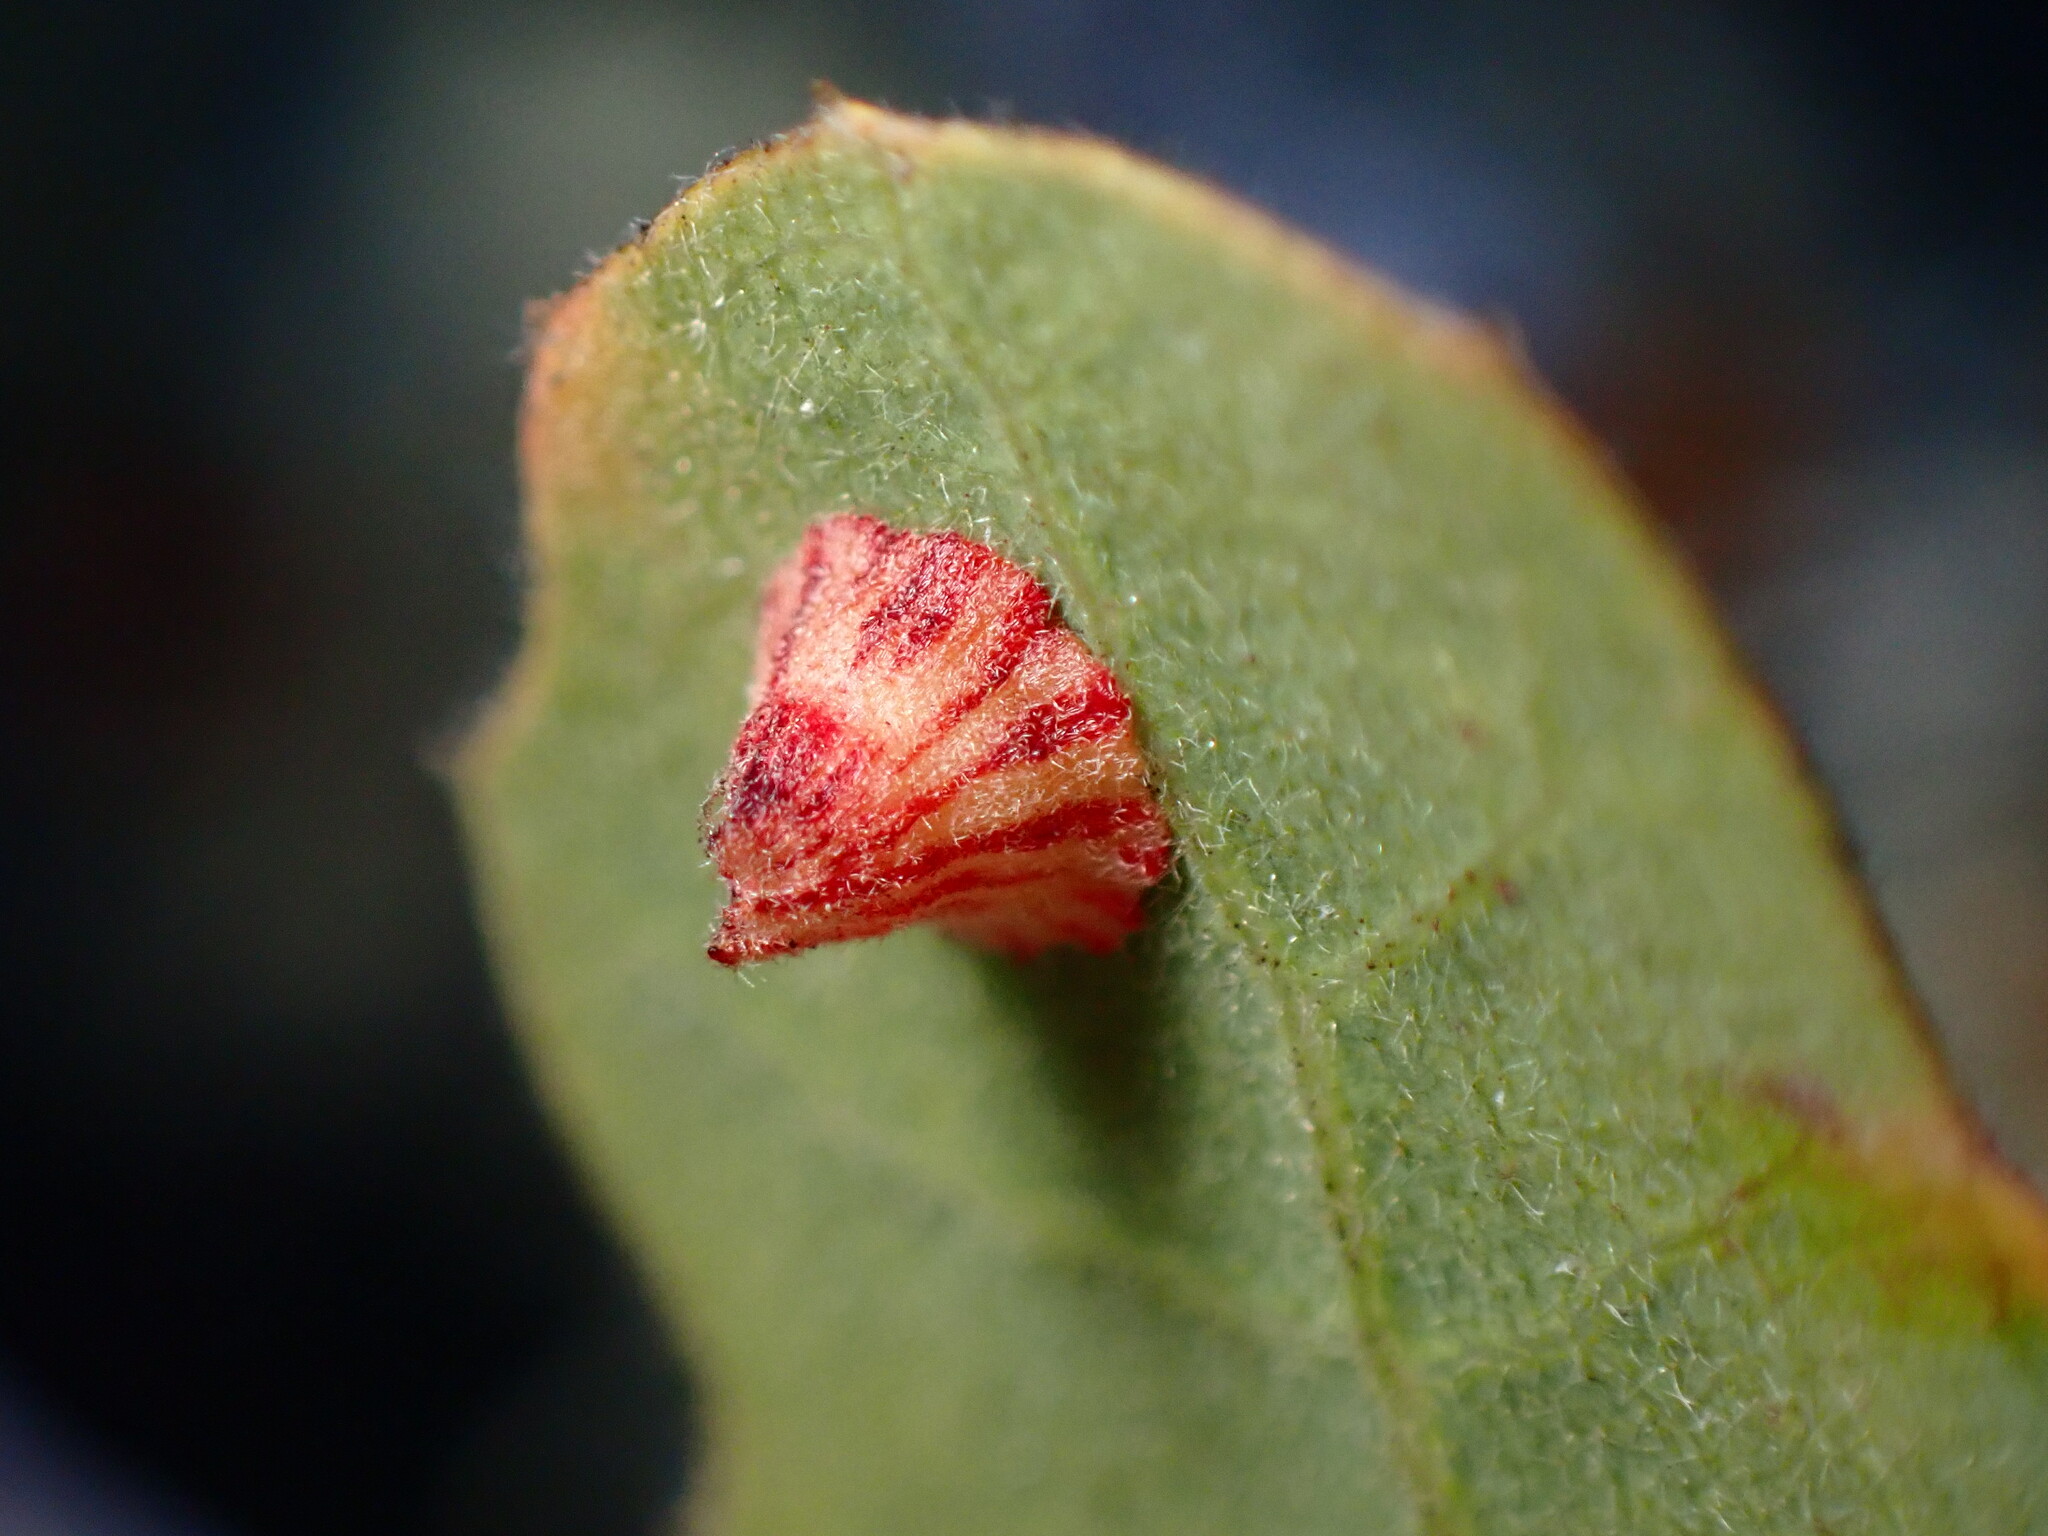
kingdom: Animalia
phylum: Arthropoda
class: Insecta
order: Hymenoptera
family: Cynipidae
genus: Andricus
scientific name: Andricus
